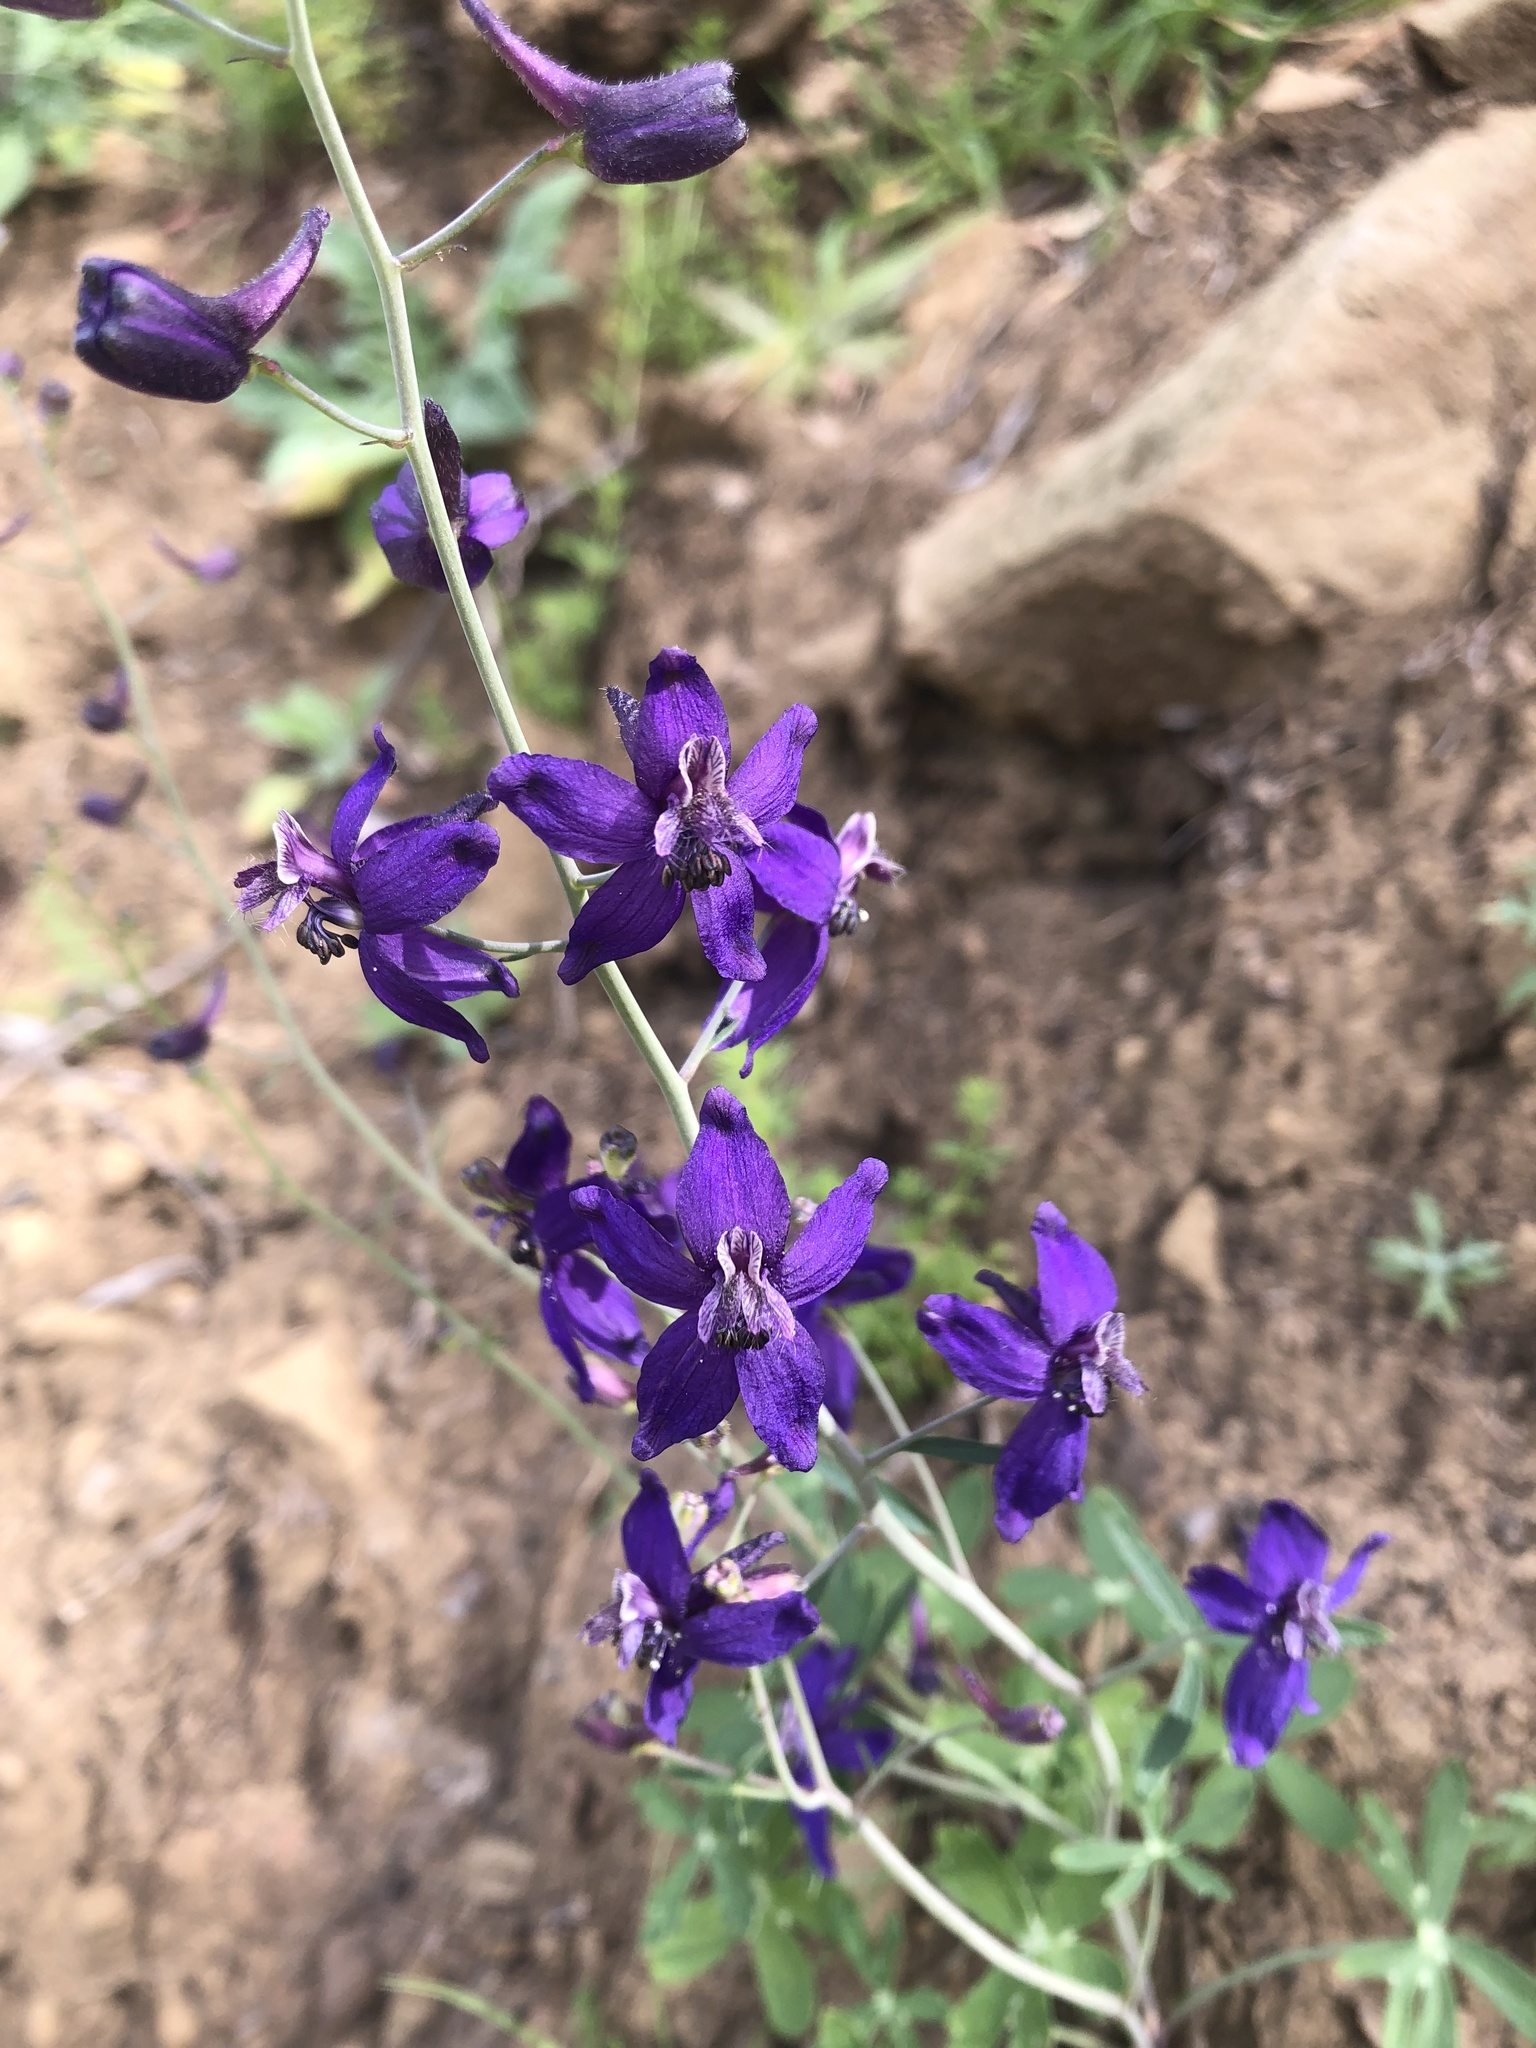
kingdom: Plantae
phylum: Tracheophyta
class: Magnoliopsida
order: Ranunculales
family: Ranunculaceae
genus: Delphinium
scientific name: Delphinium patens
